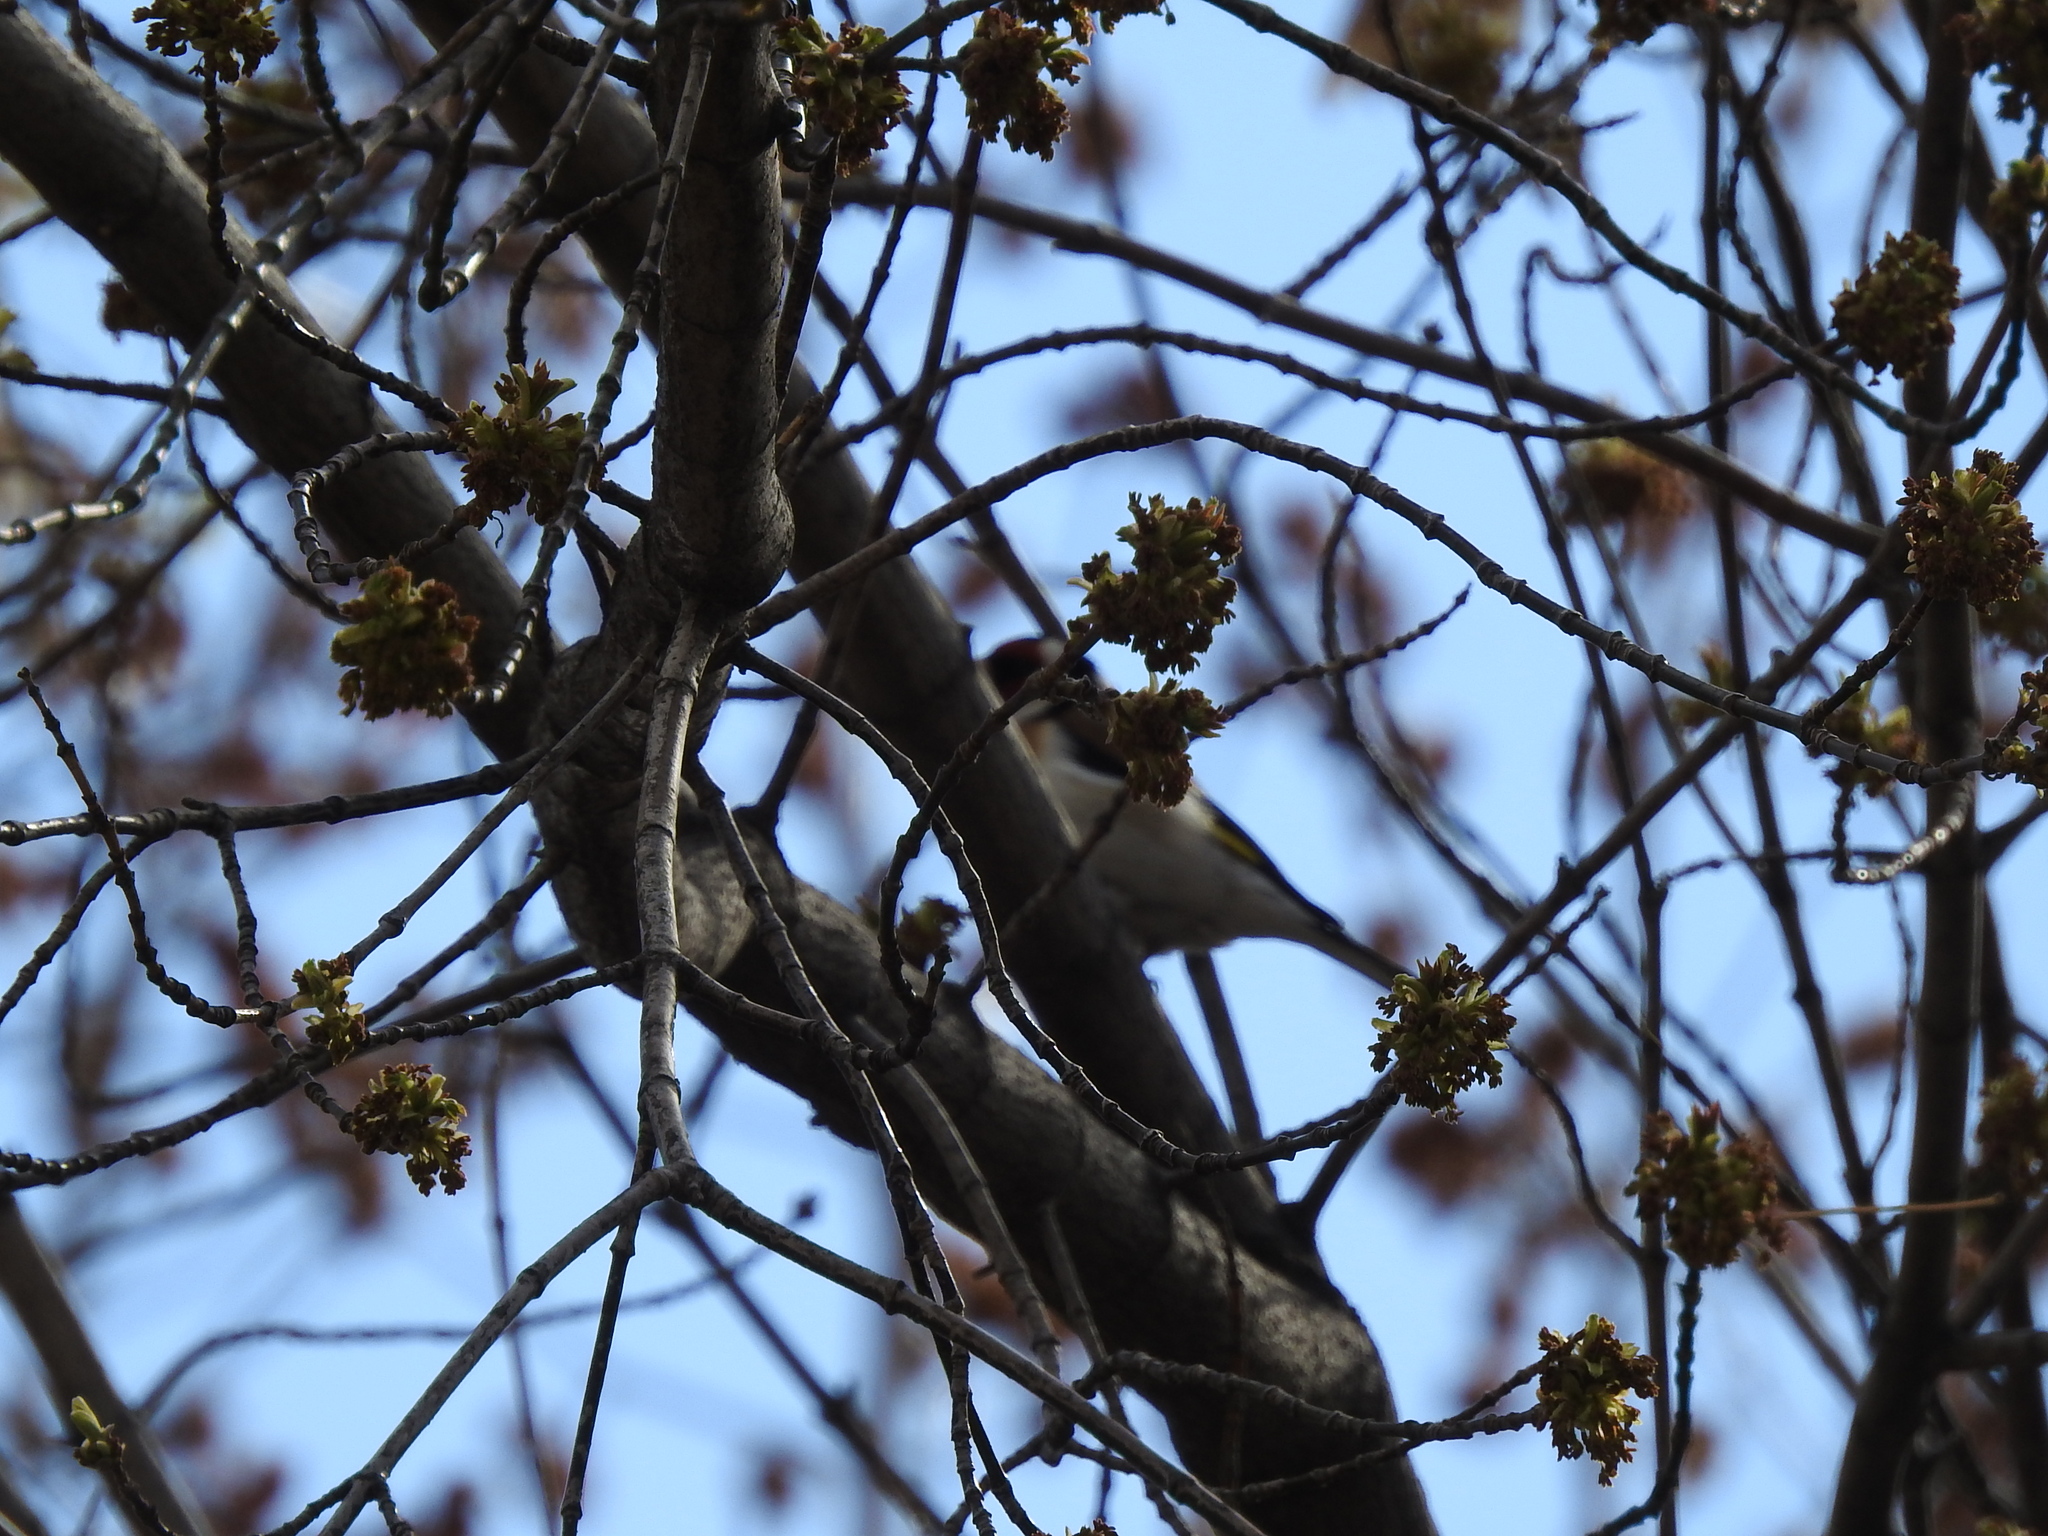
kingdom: Animalia
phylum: Chordata
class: Aves
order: Passeriformes
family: Fringillidae
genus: Carduelis
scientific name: Carduelis carduelis
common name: European goldfinch
